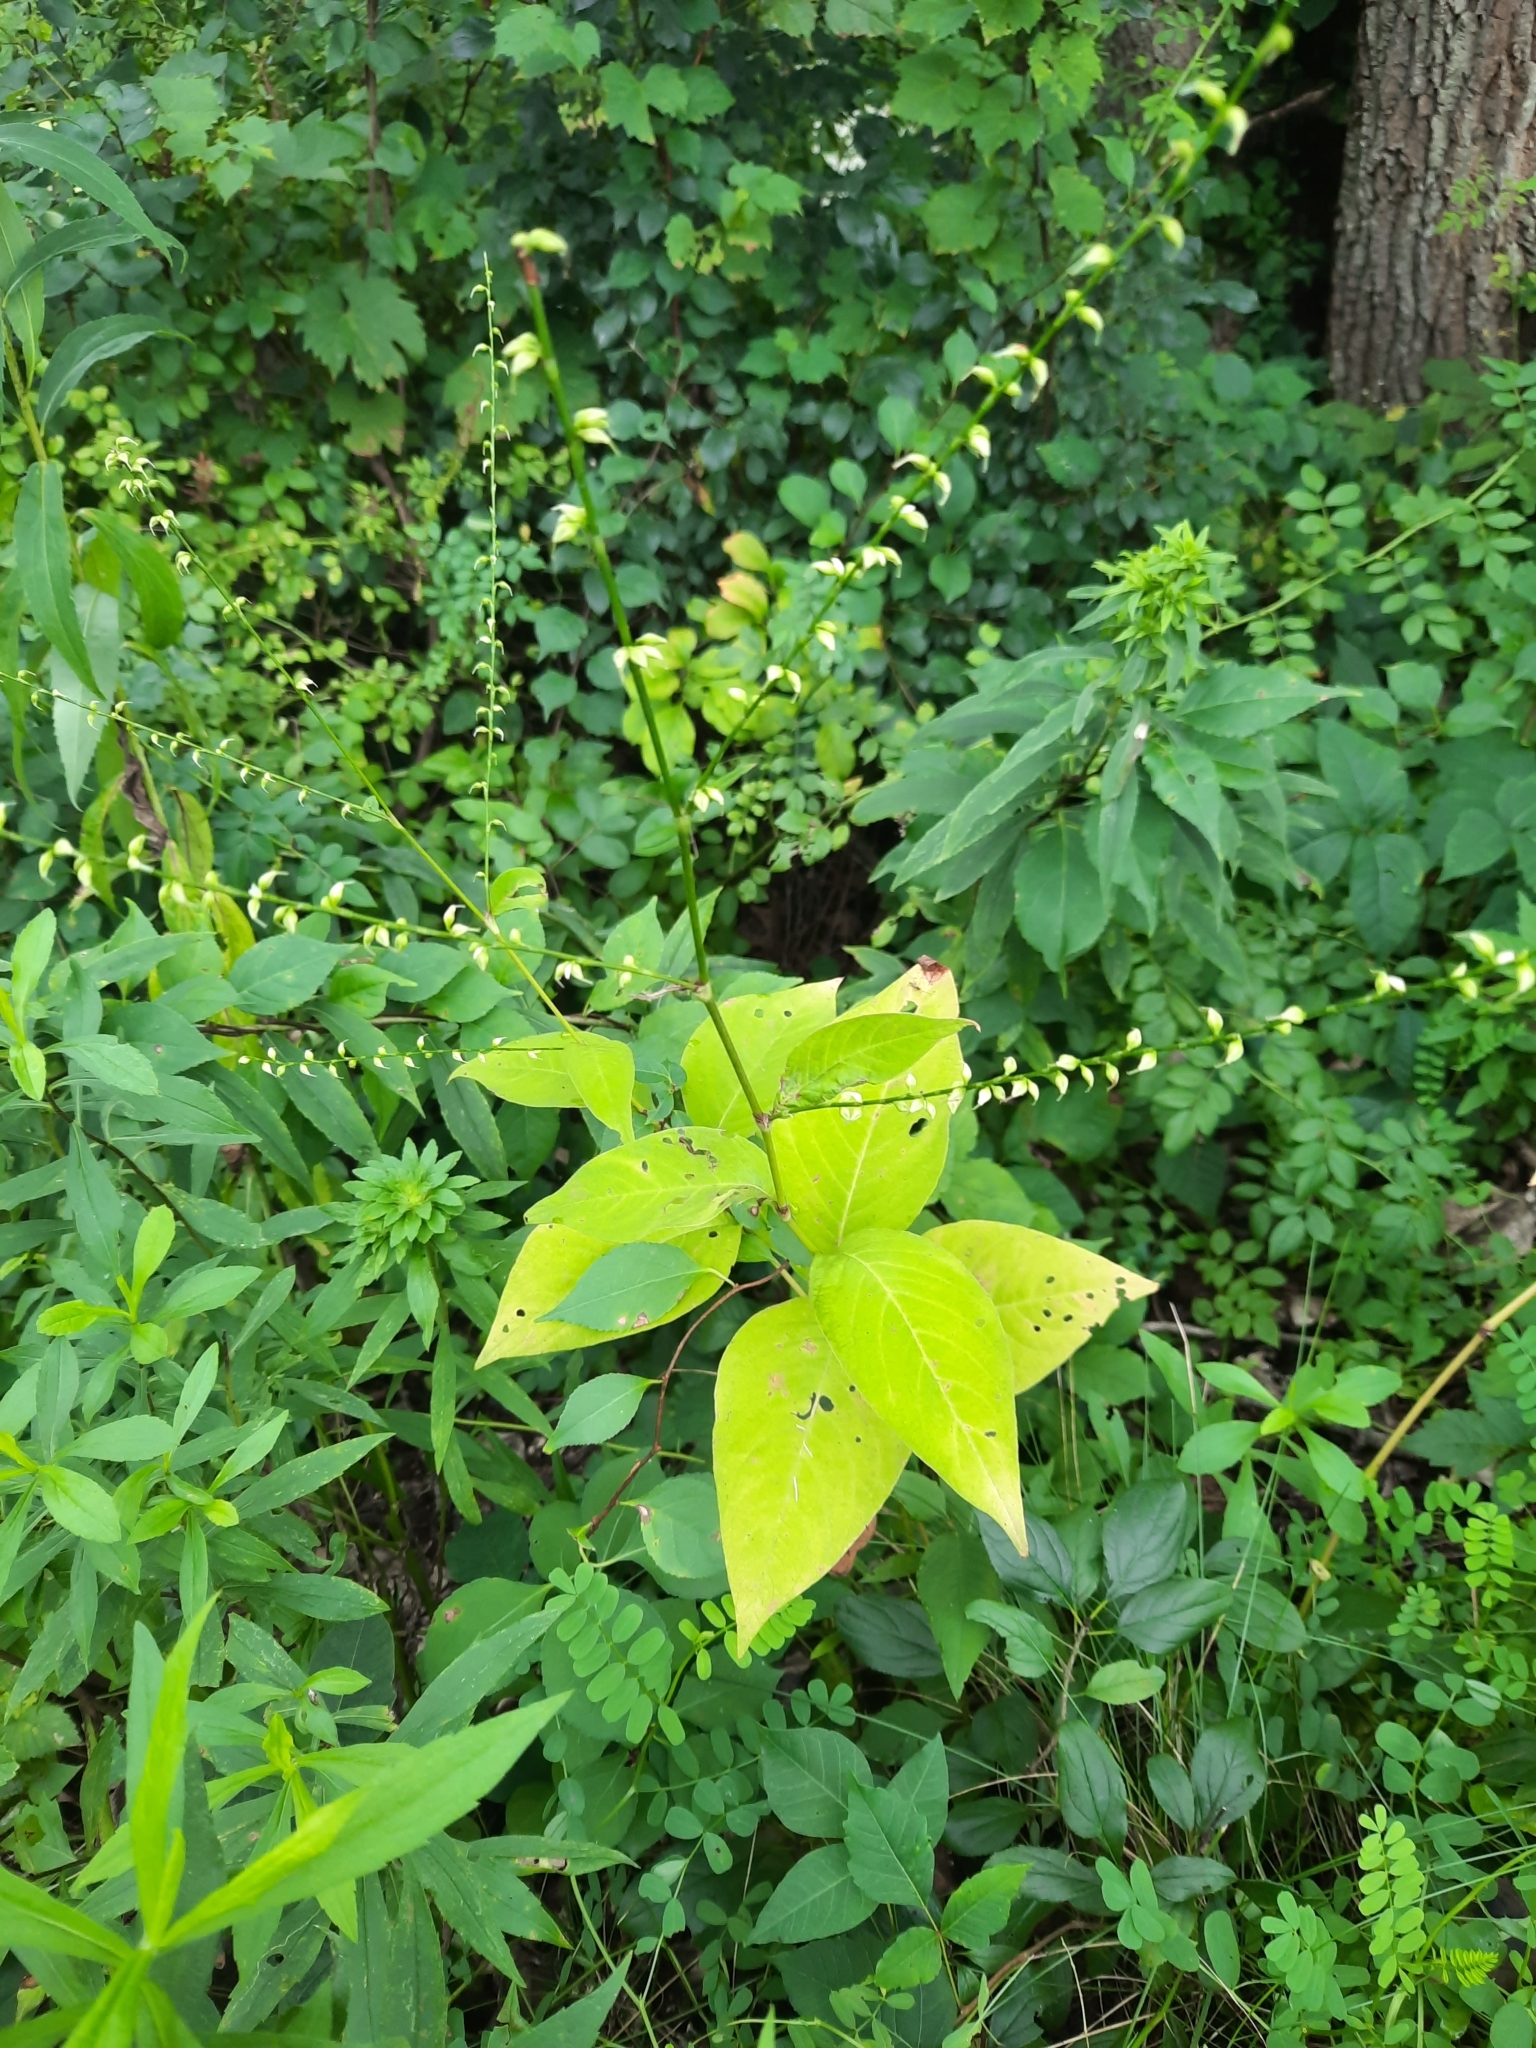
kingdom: Plantae
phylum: Tracheophyta
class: Magnoliopsida
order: Caryophyllales
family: Polygonaceae
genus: Persicaria
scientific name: Persicaria virginiana
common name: Jumpseed
